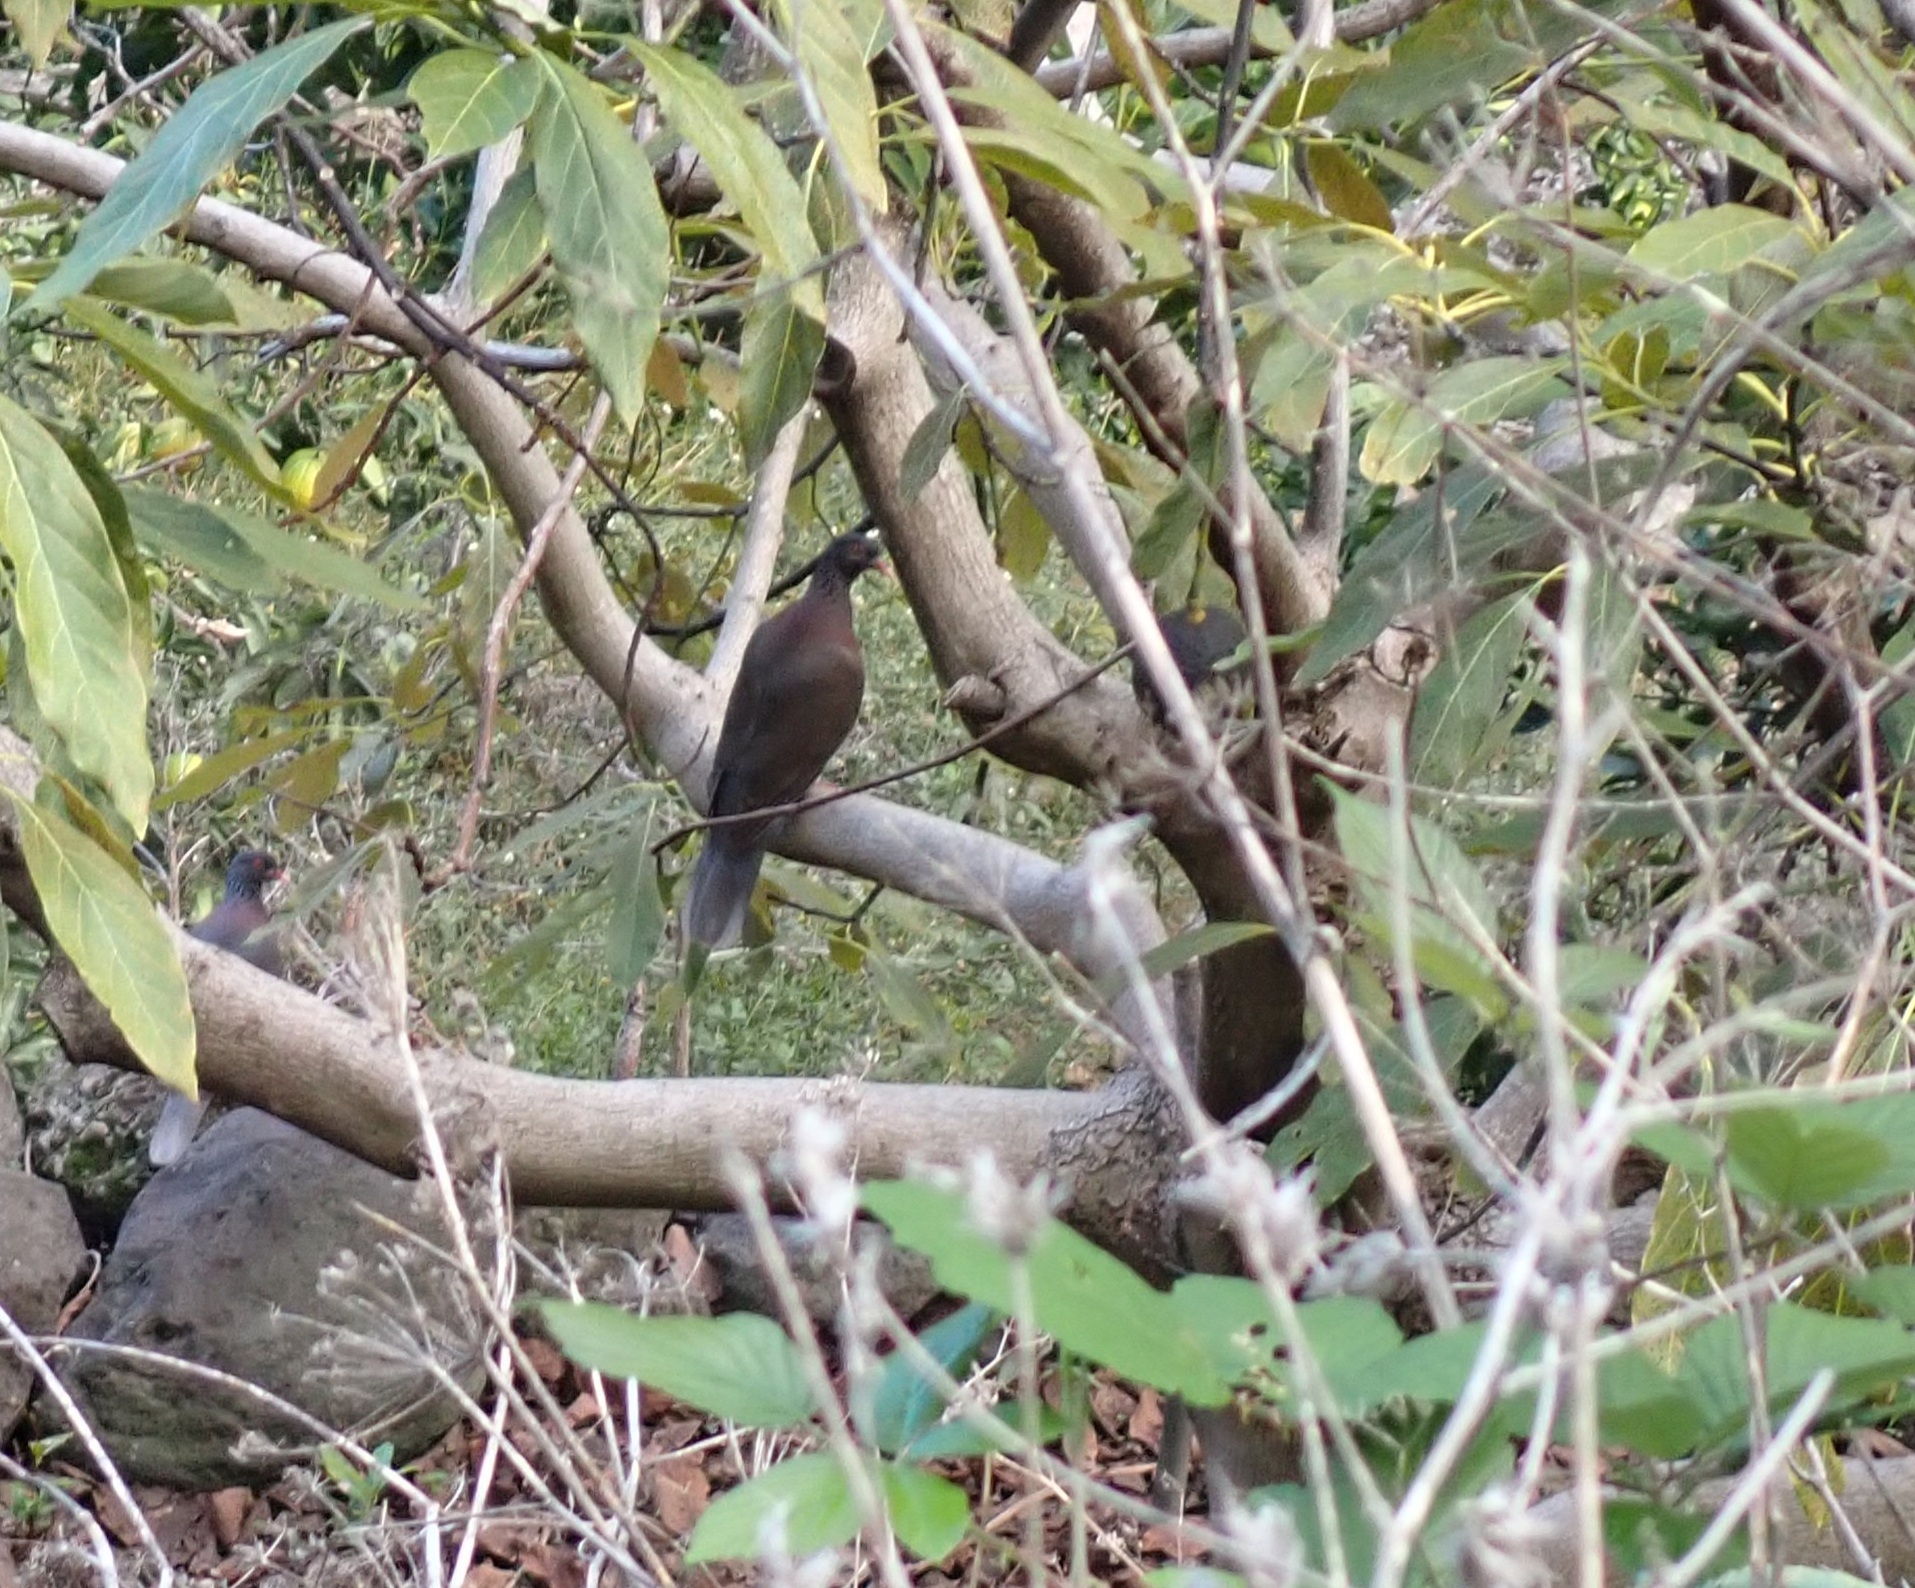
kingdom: Animalia
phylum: Chordata
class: Aves
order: Columbiformes
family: Columbidae
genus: Columba
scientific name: Columba junoniae
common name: Laurel pigeon
